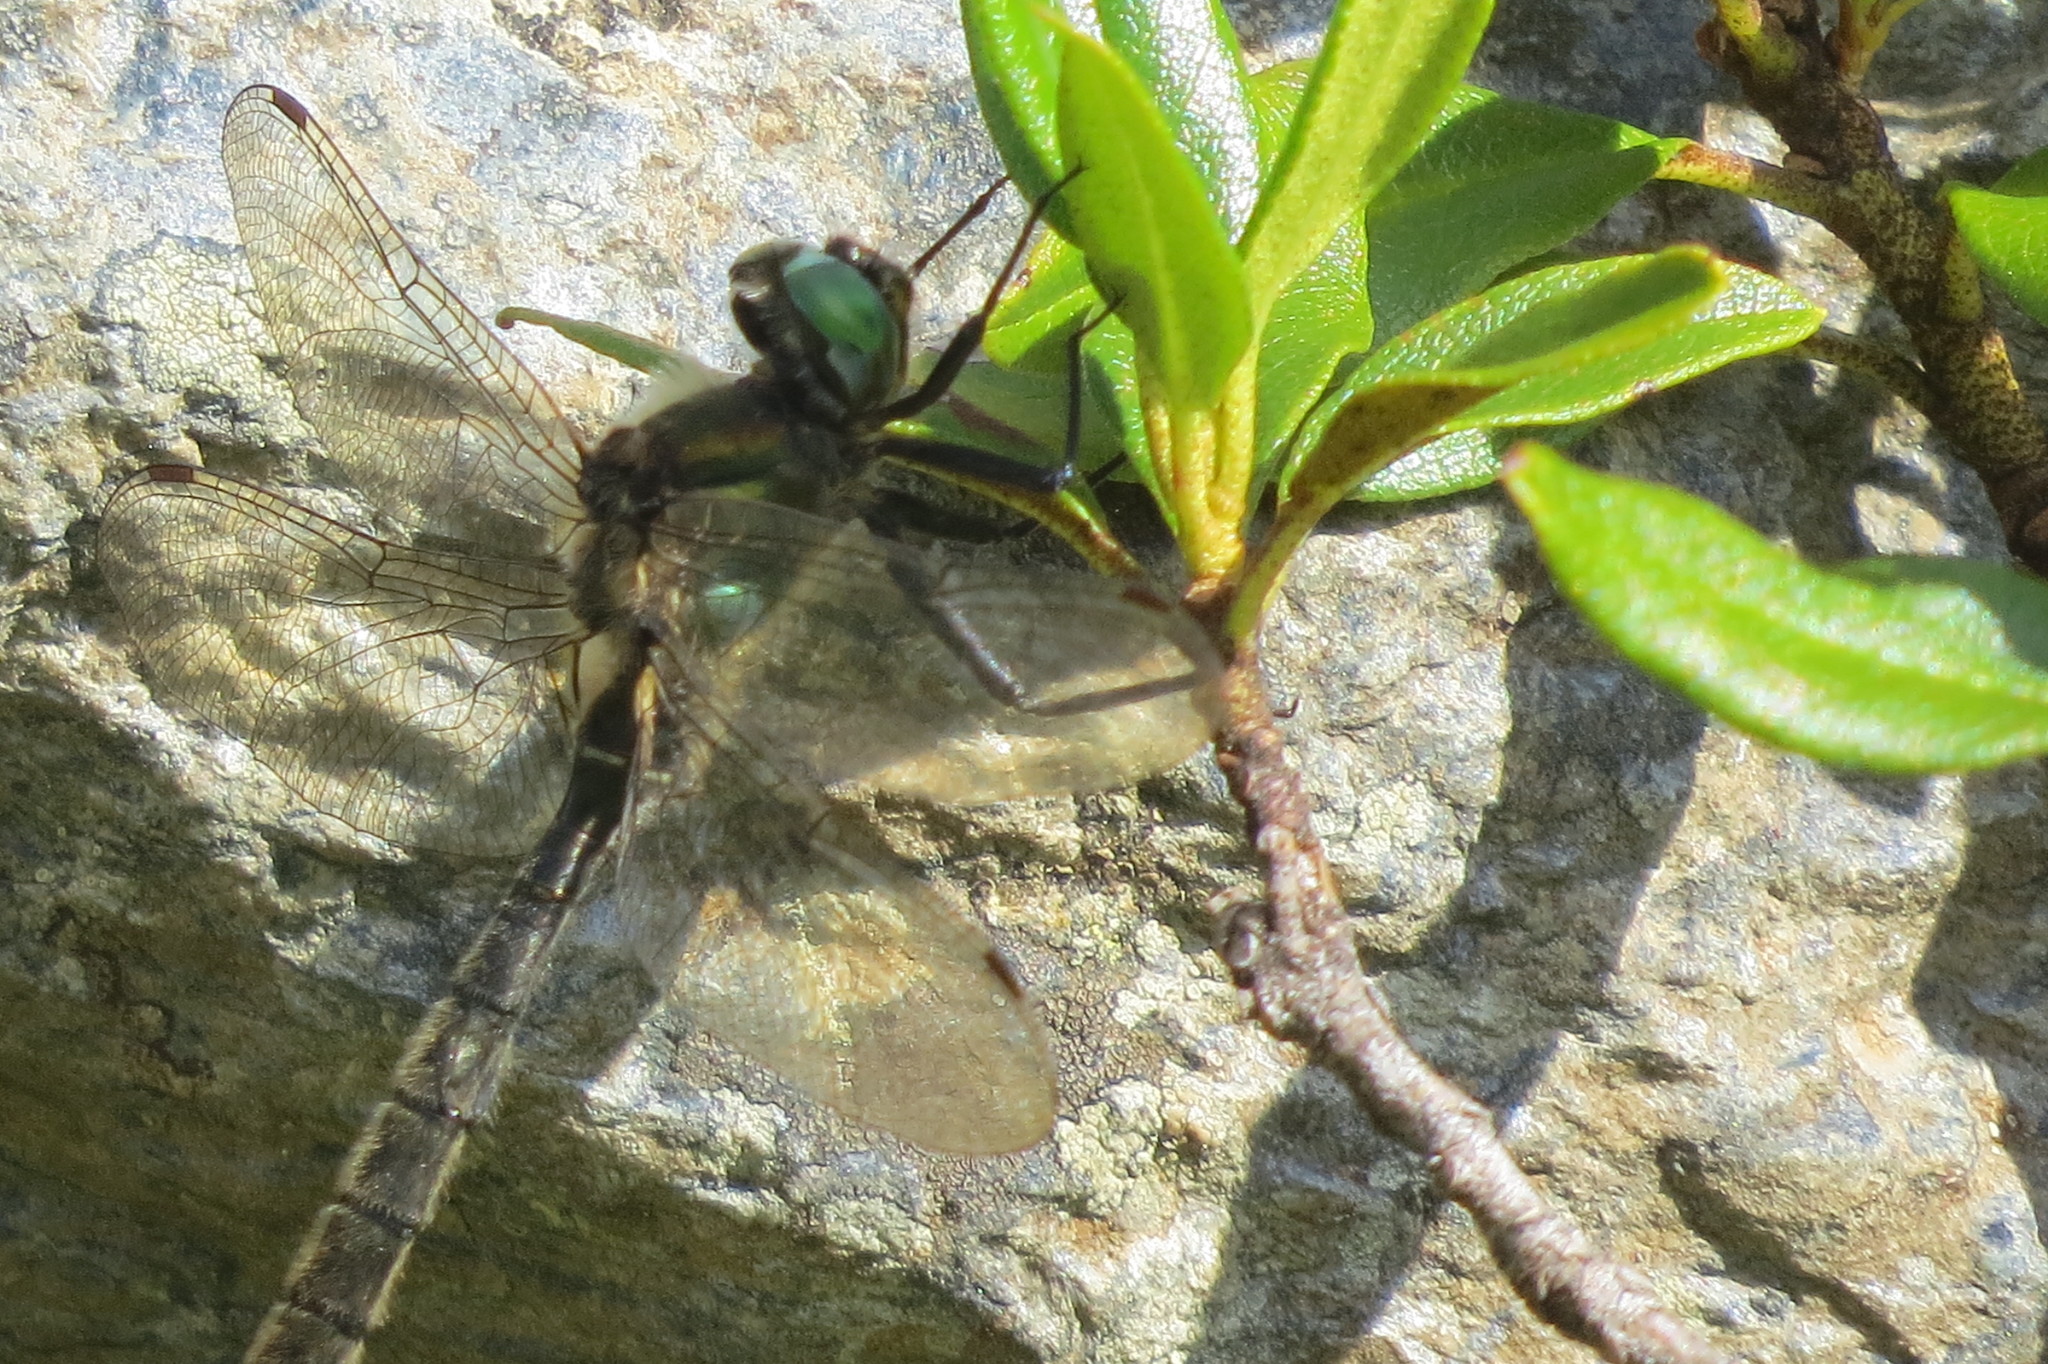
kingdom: Animalia
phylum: Arthropoda
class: Insecta
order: Odonata
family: Corduliidae
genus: Somatochlora
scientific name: Somatochlora alpestris
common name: Alpine emerald
